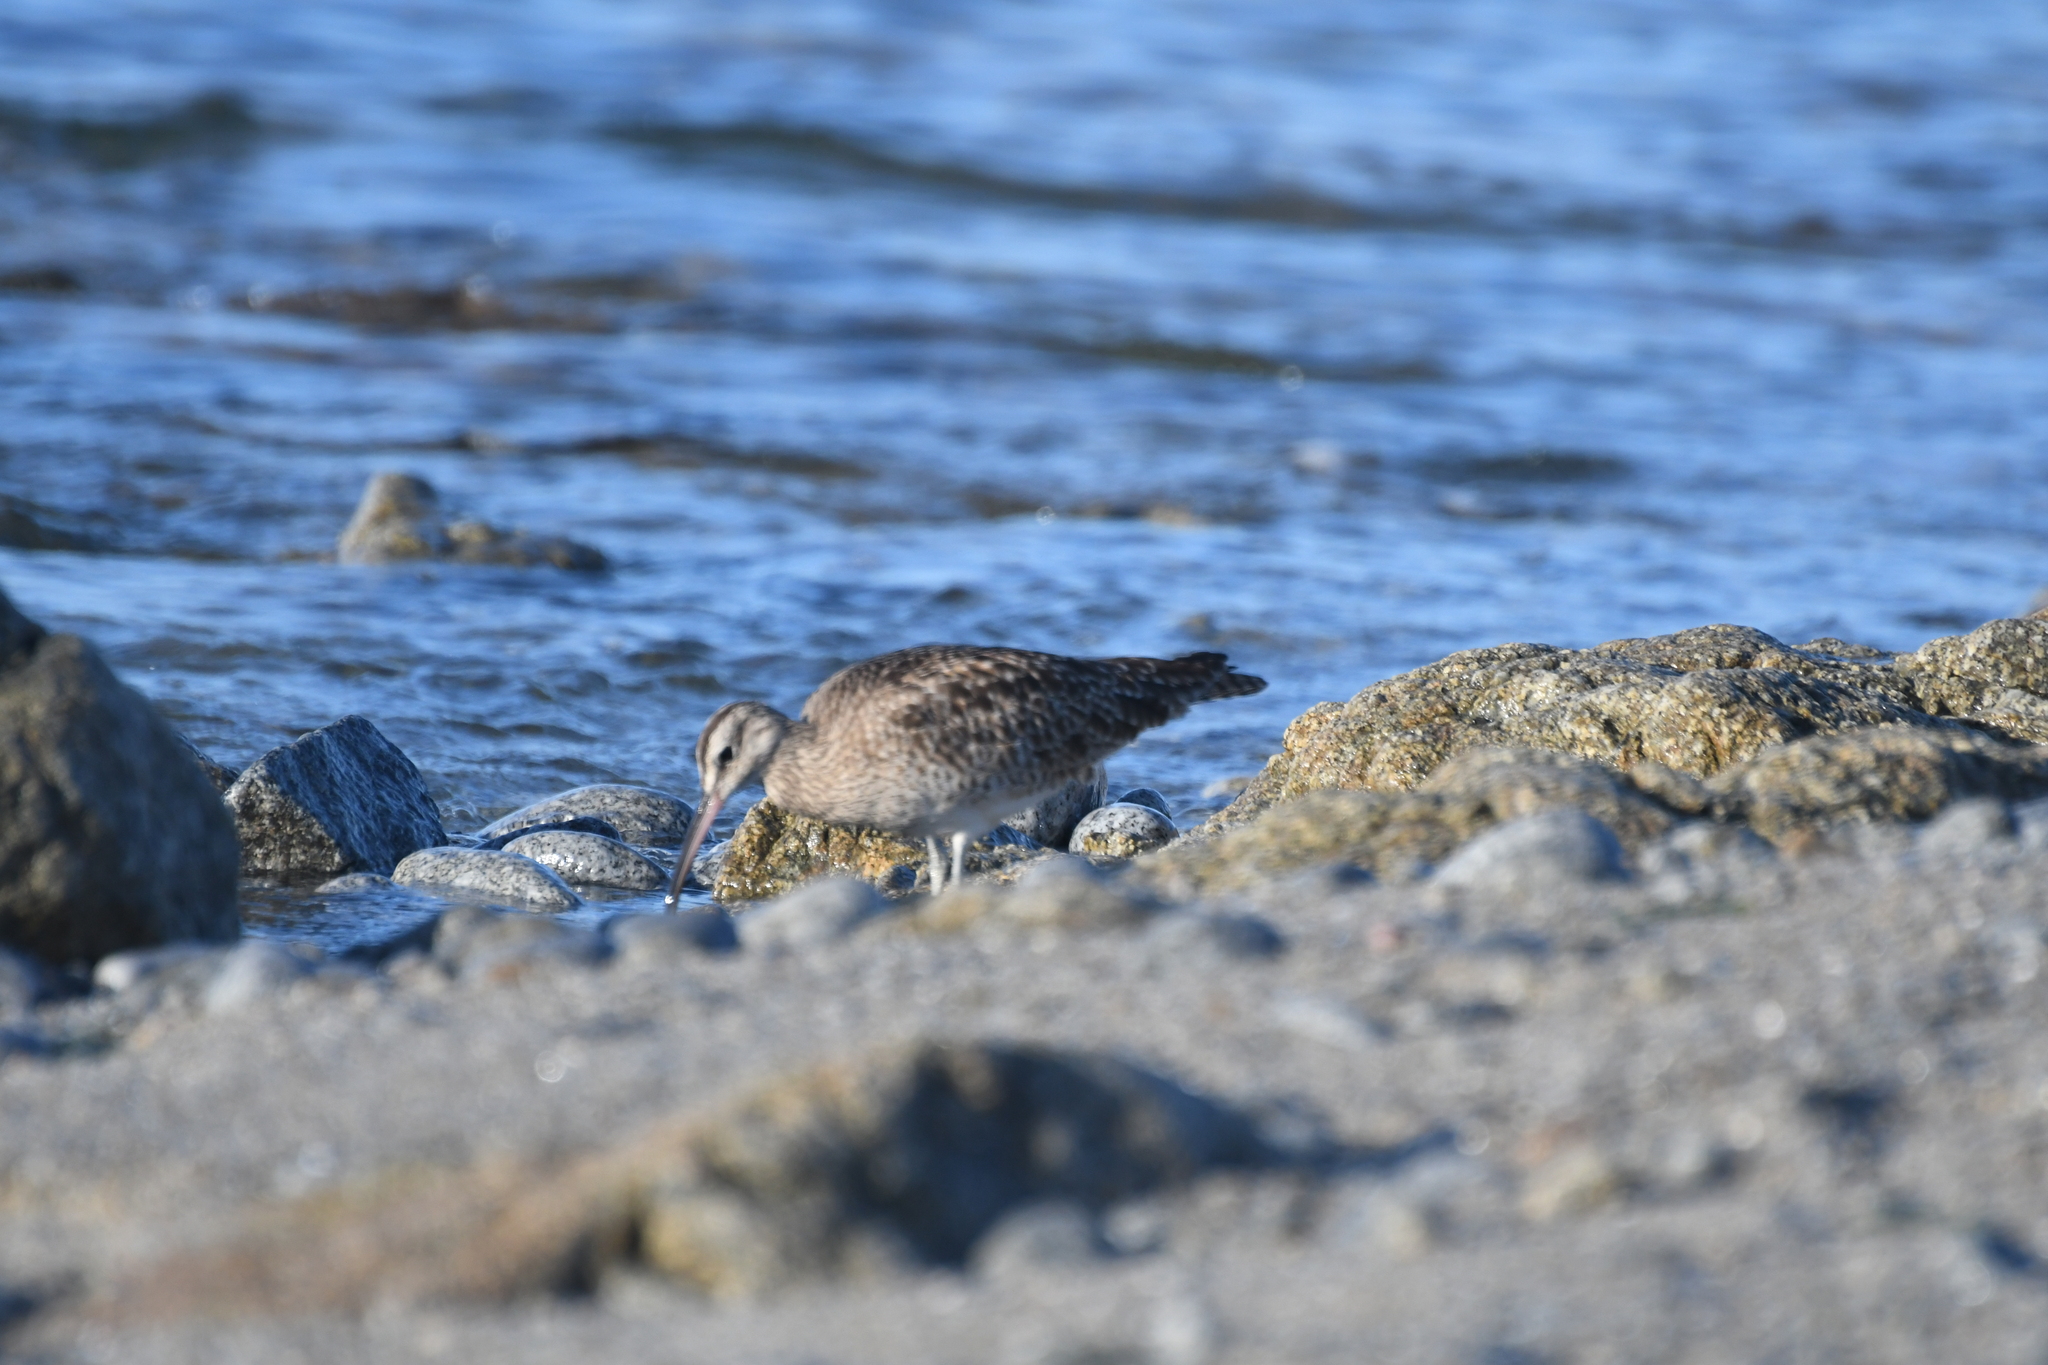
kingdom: Animalia
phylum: Chordata
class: Aves
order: Charadriiformes
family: Scolopacidae
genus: Numenius
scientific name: Numenius phaeopus
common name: Whimbrel
